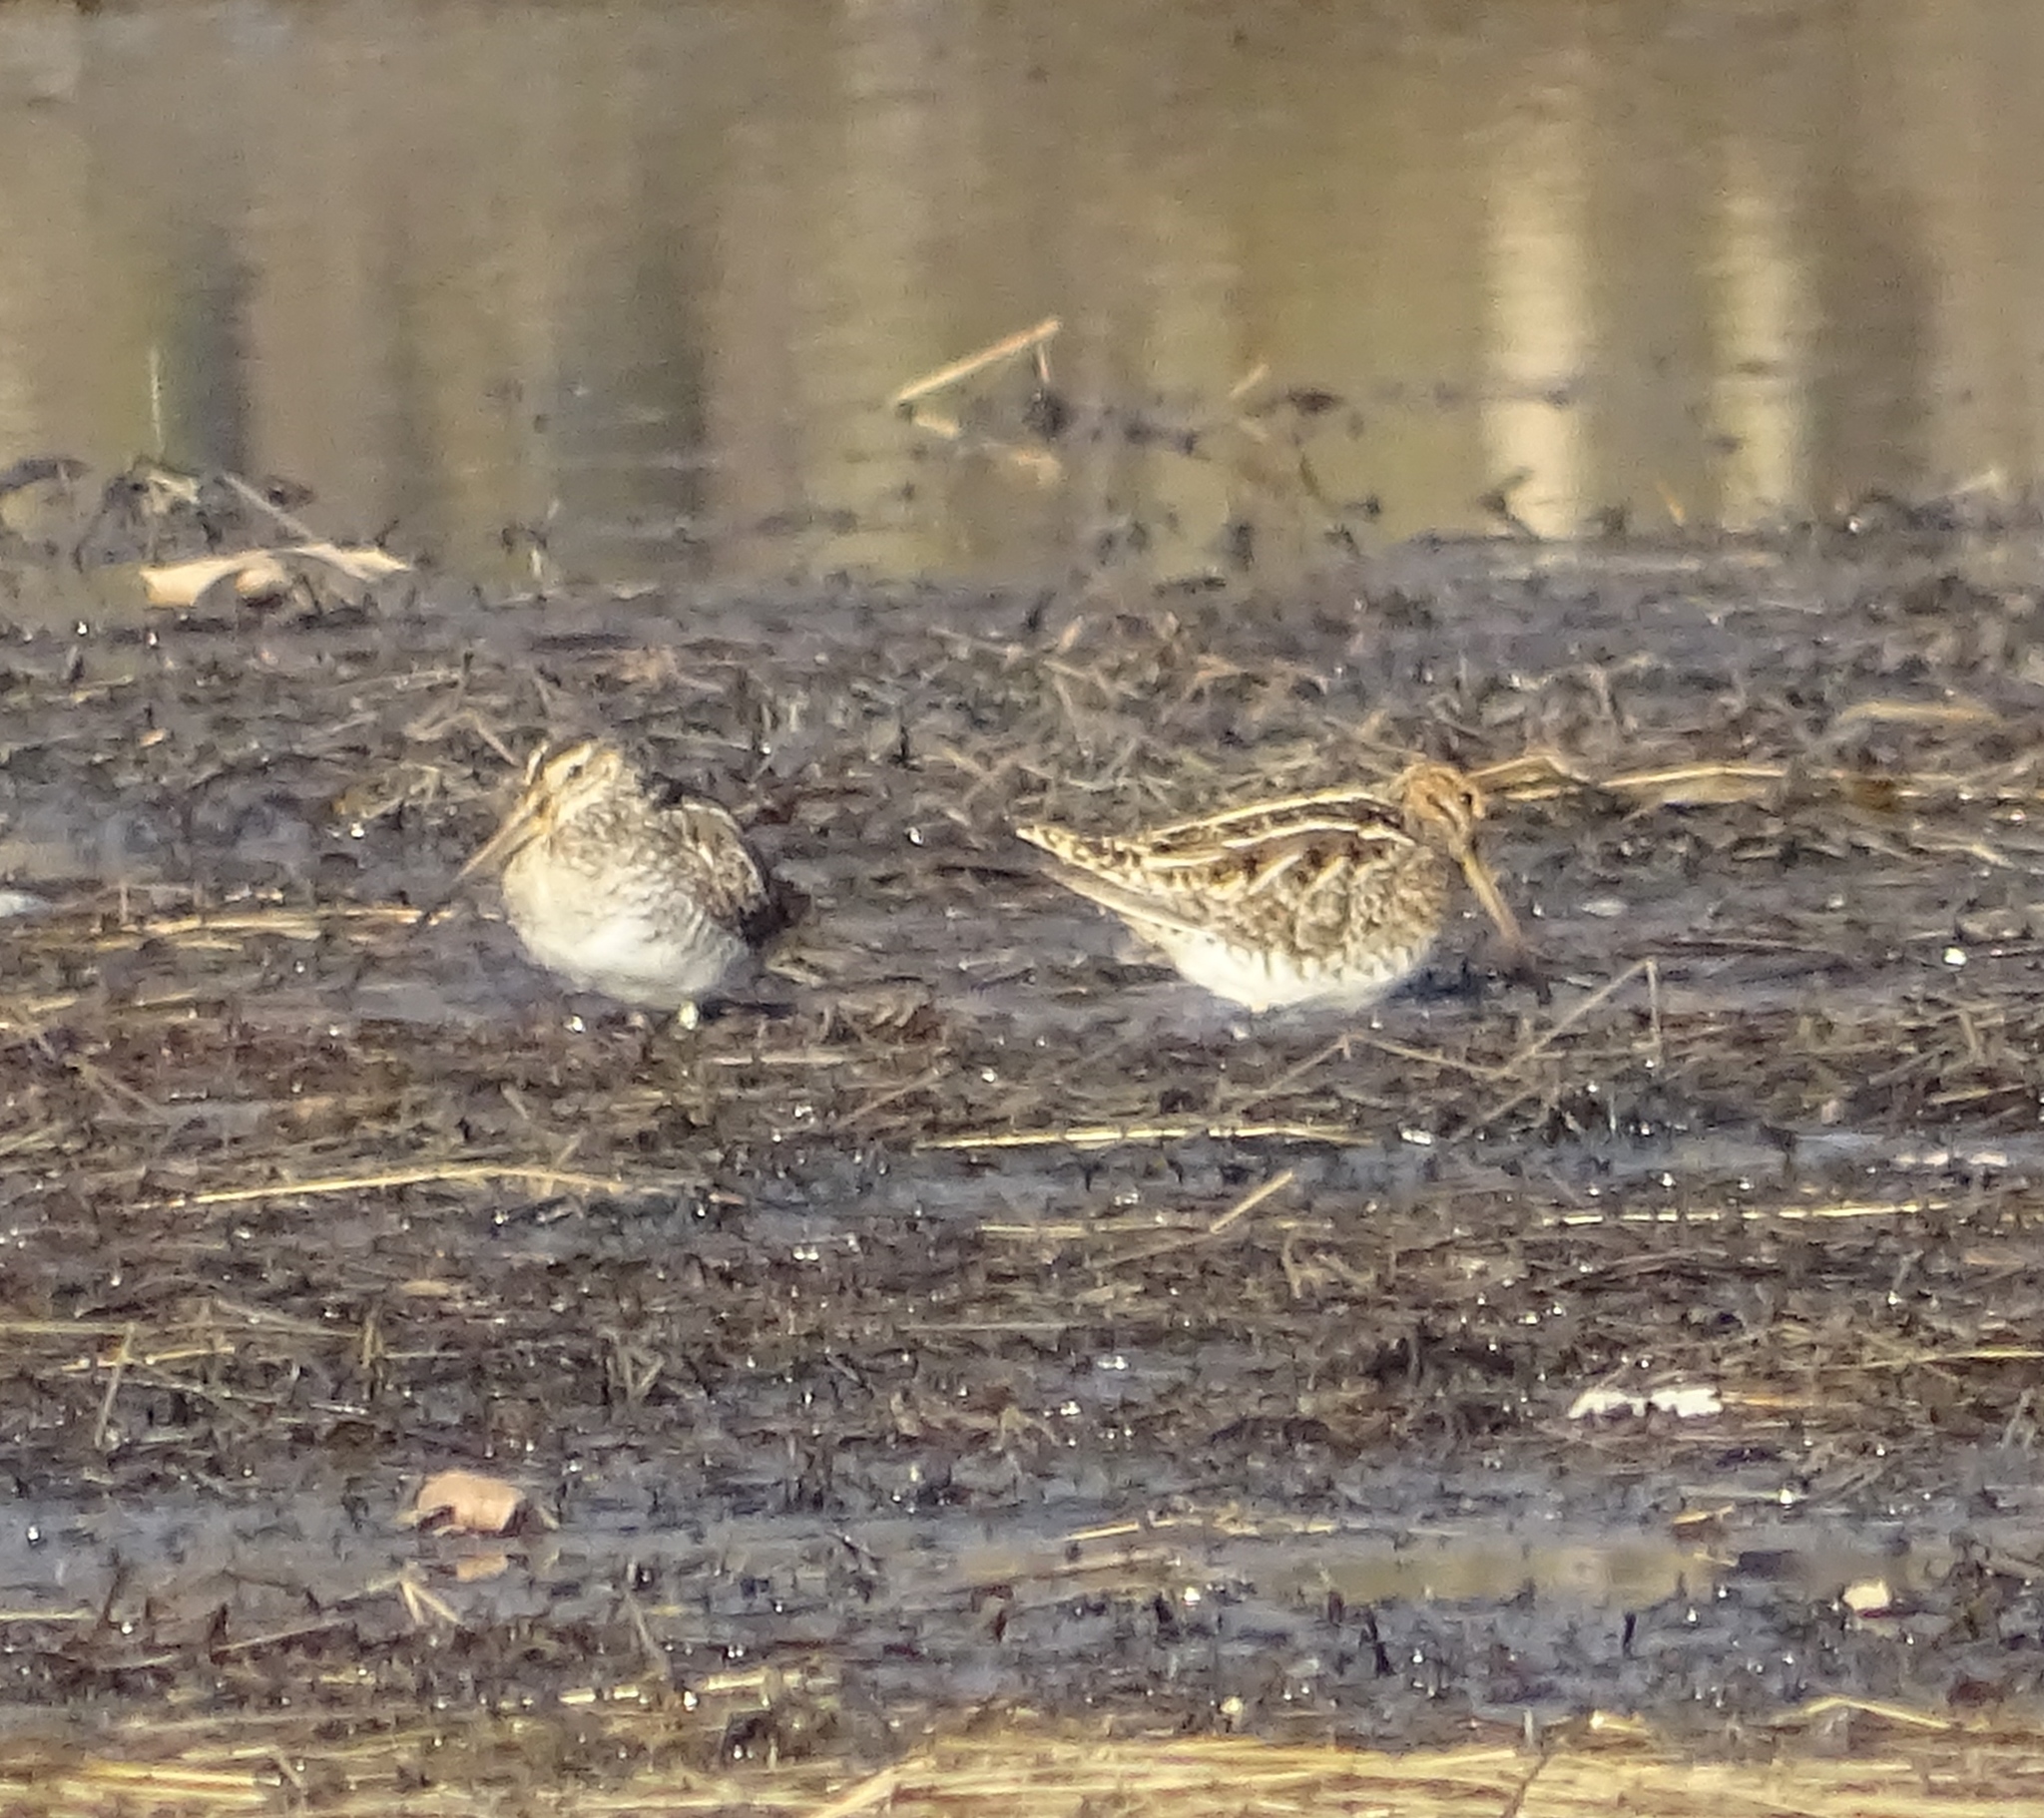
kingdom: Animalia
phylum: Chordata
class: Aves
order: Charadriiformes
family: Scolopacidae
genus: Gallinago
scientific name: Gallinago delicata
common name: Wilson's snipe
